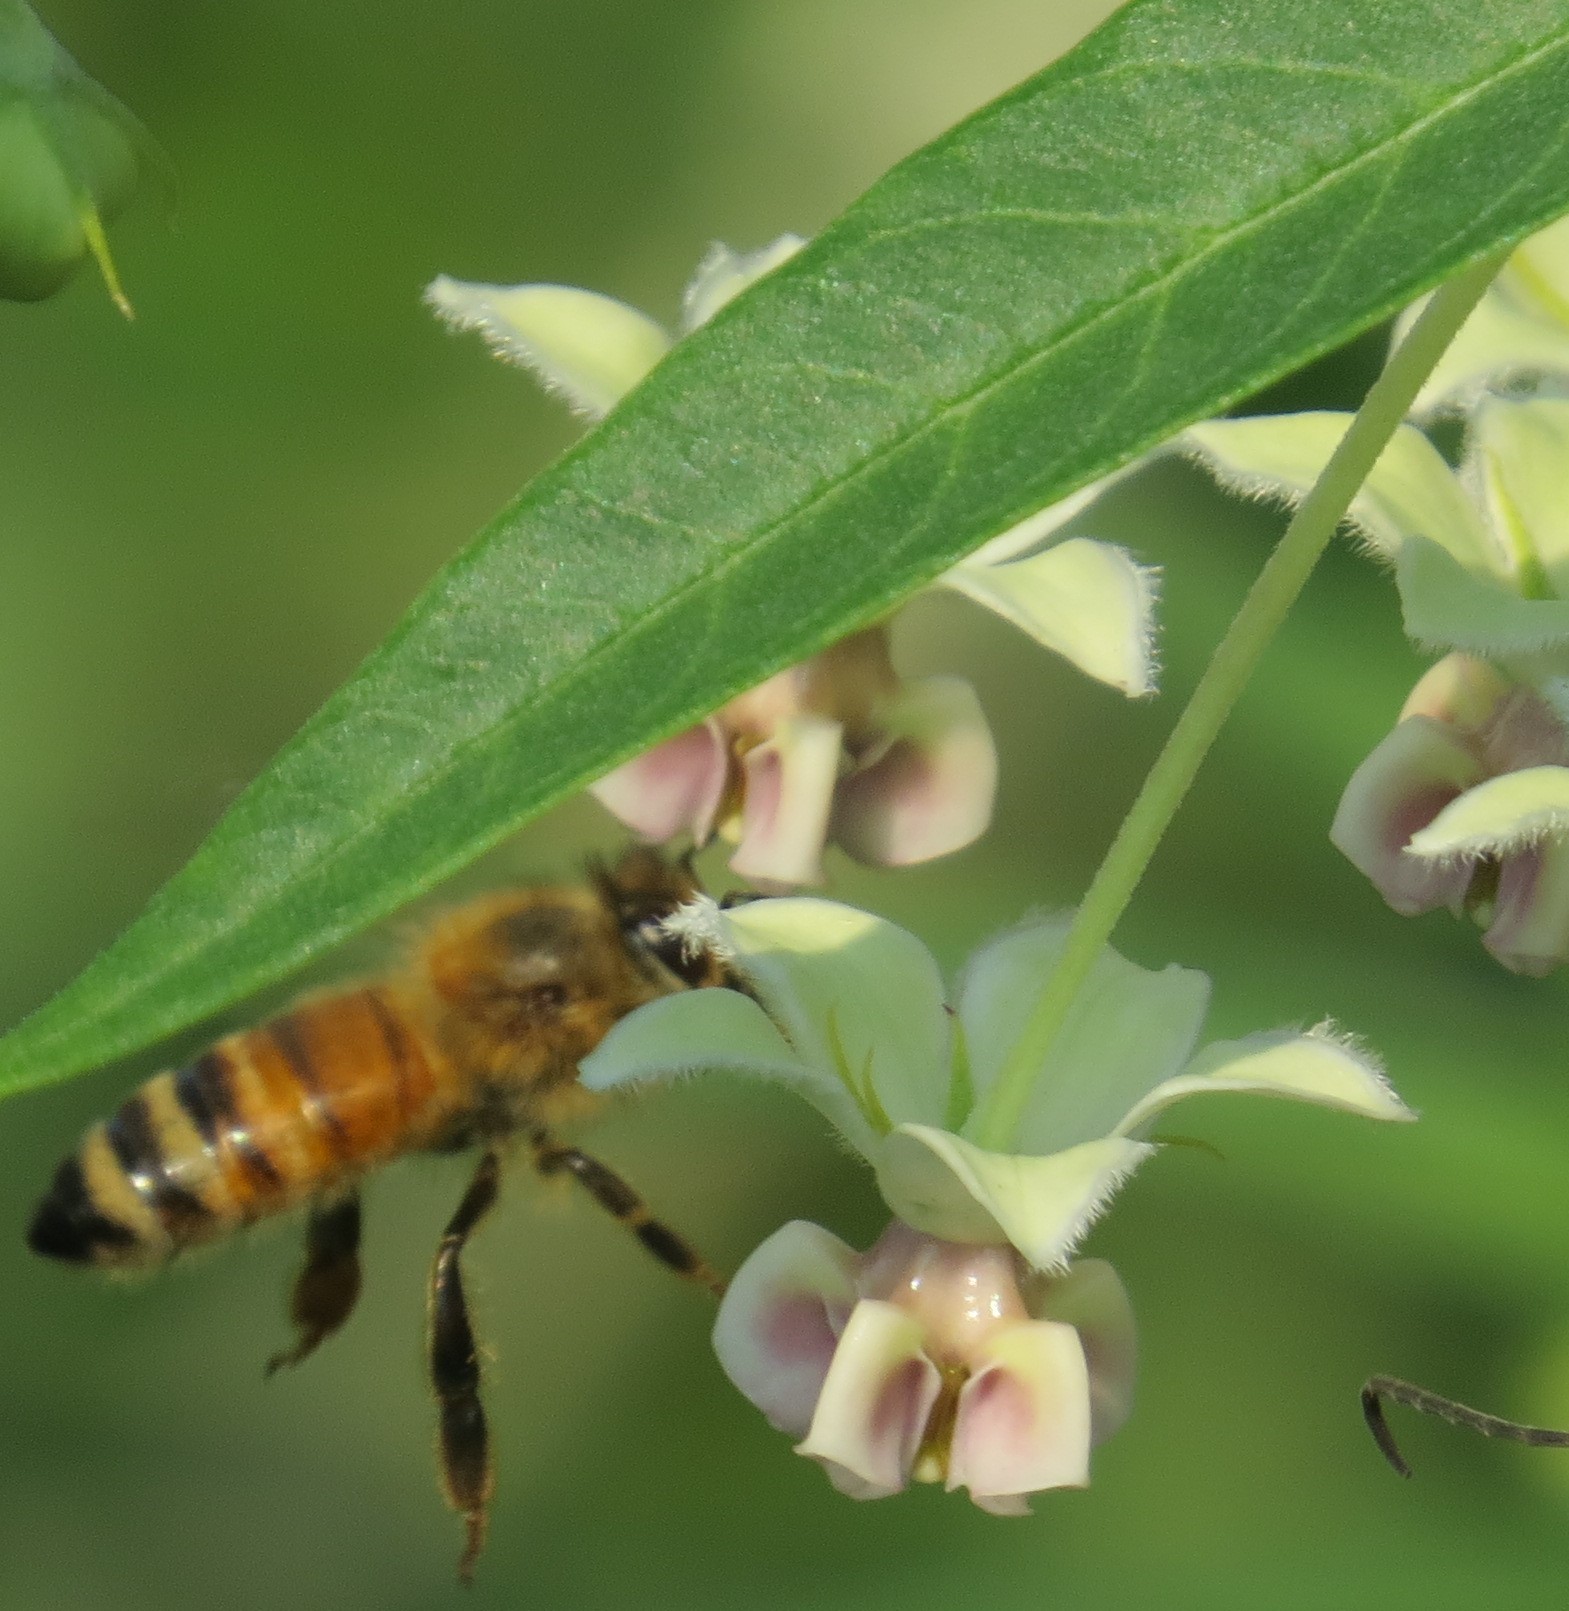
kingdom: Animalia
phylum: Arthropoda
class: Insecta
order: Hymenoptera
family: Apidae
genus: Apis
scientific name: Apis mellifera
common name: Honey bee
